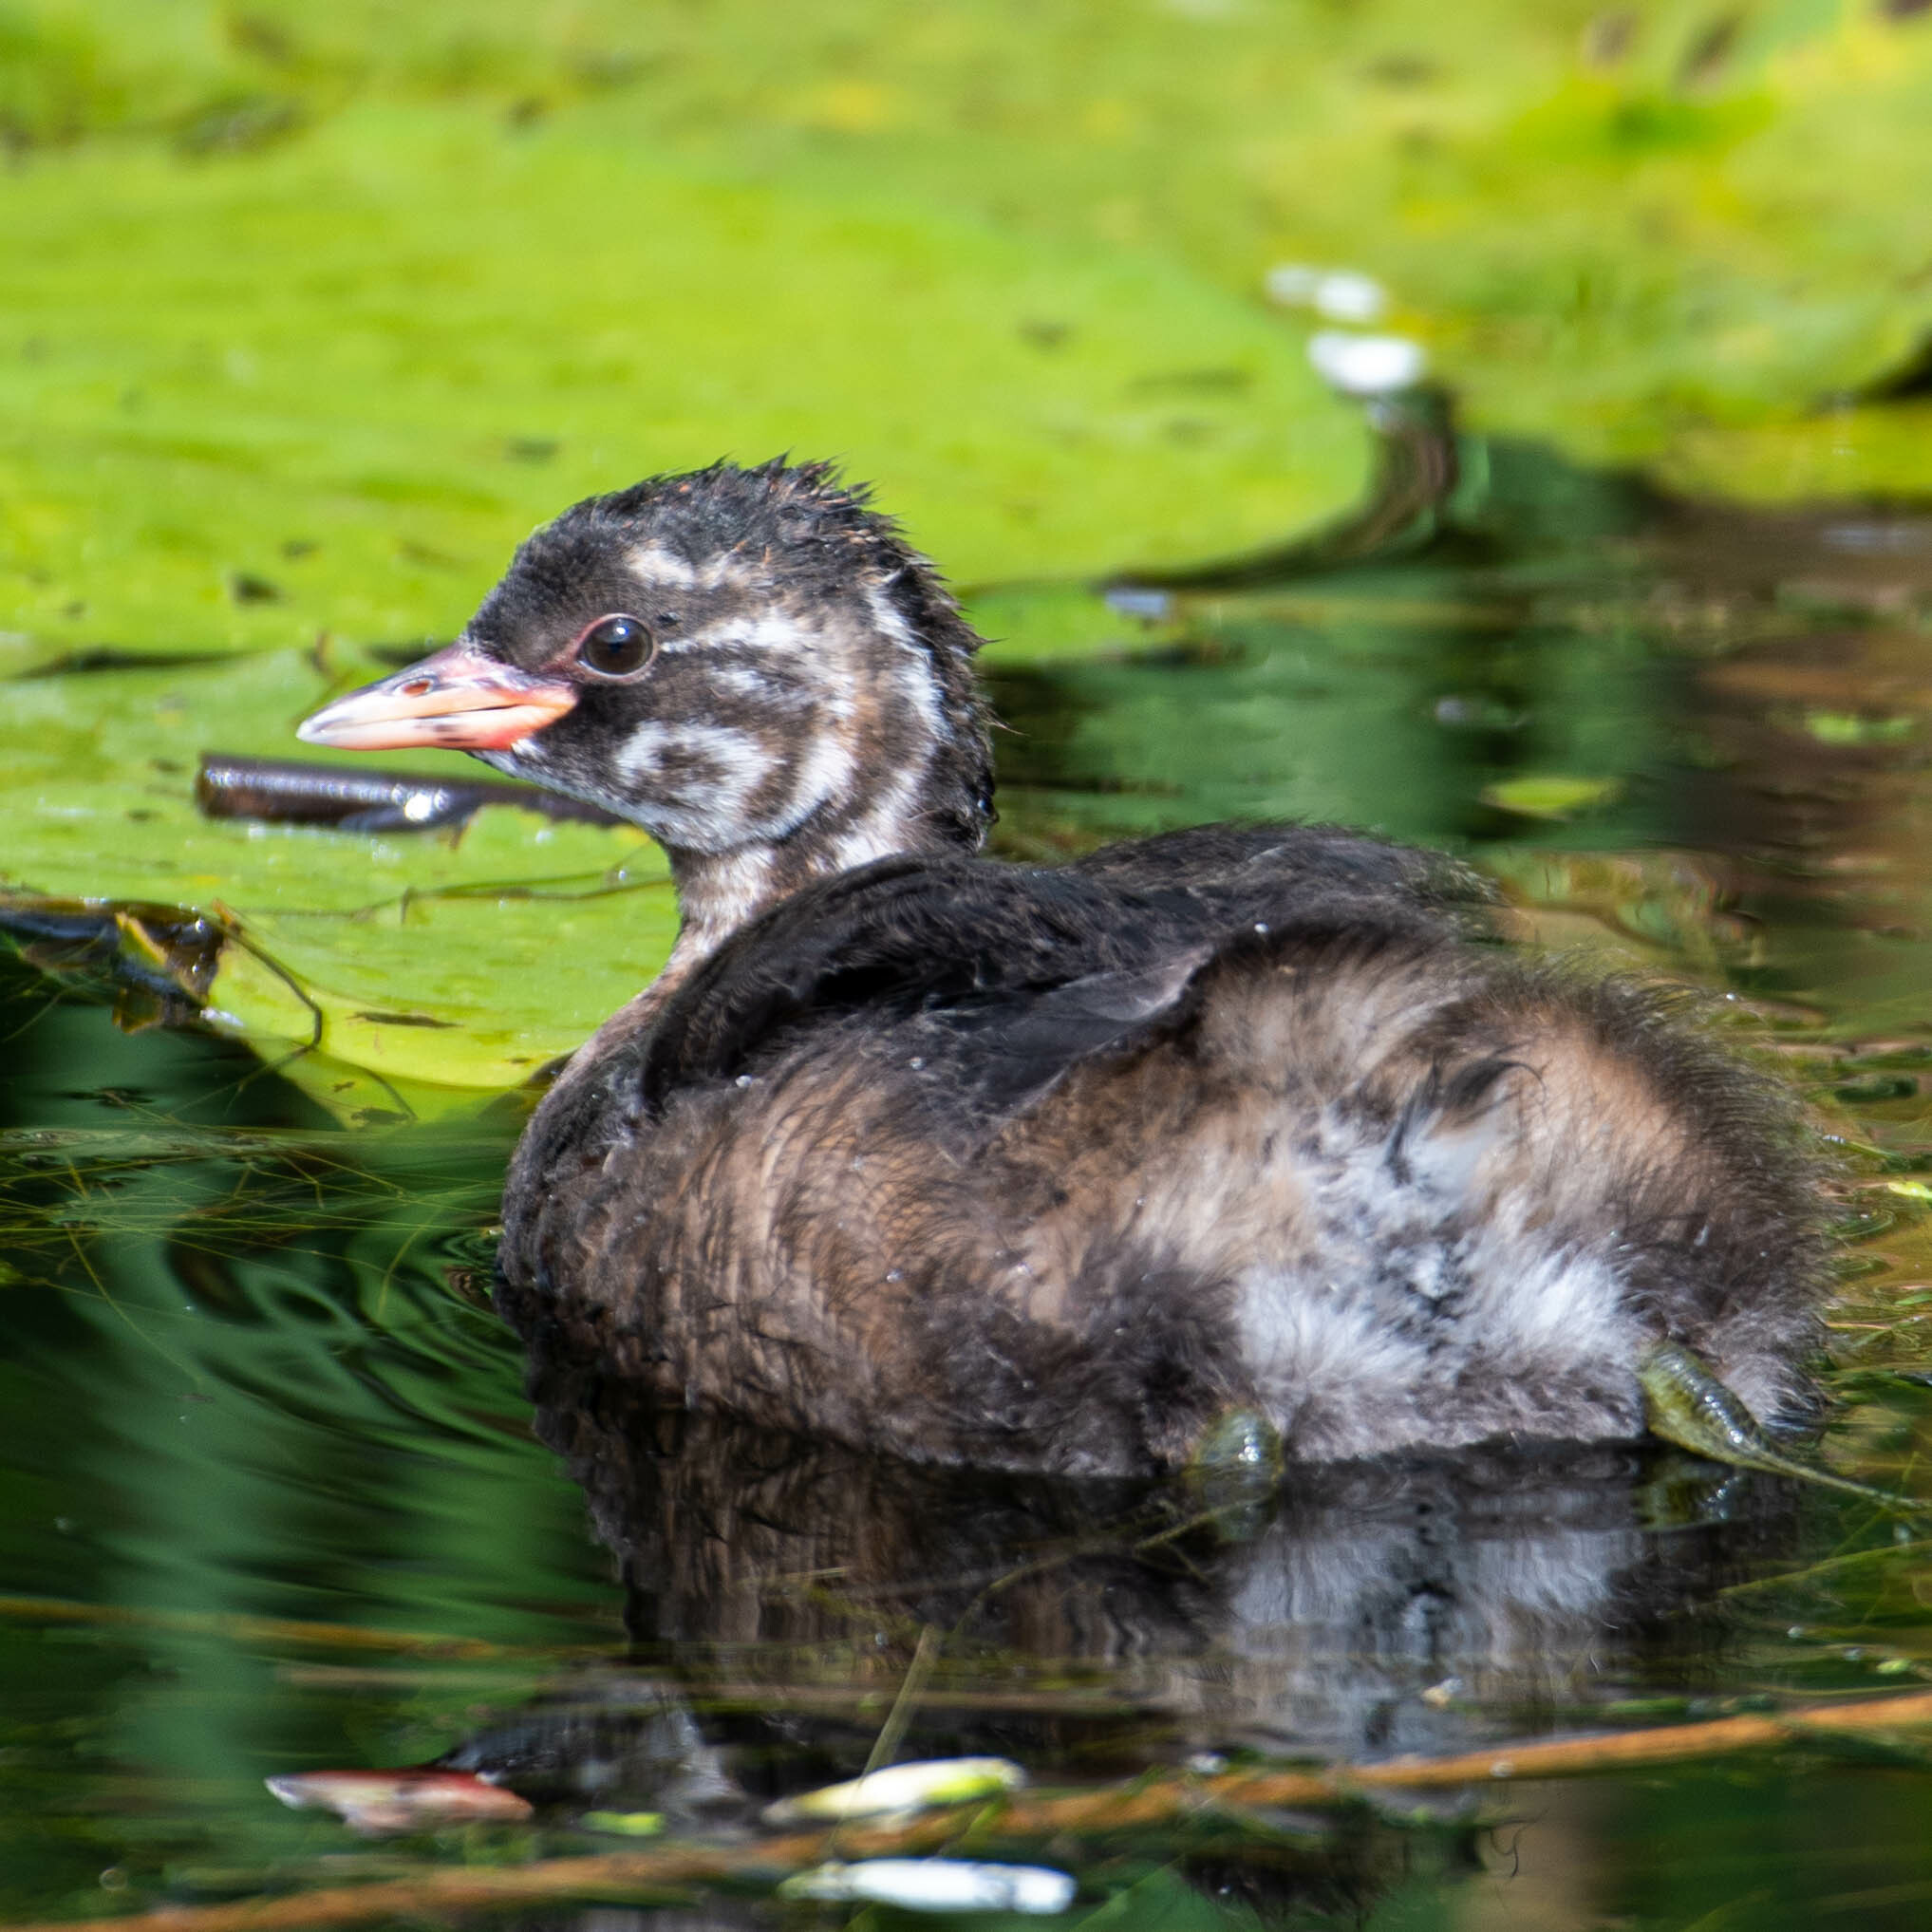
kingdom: Animalia
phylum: Chordata
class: Aves
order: Podicipediformes
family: Podicipedidae
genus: Tachybaptus
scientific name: Tachybaptus ruficollis
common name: Little grebe
